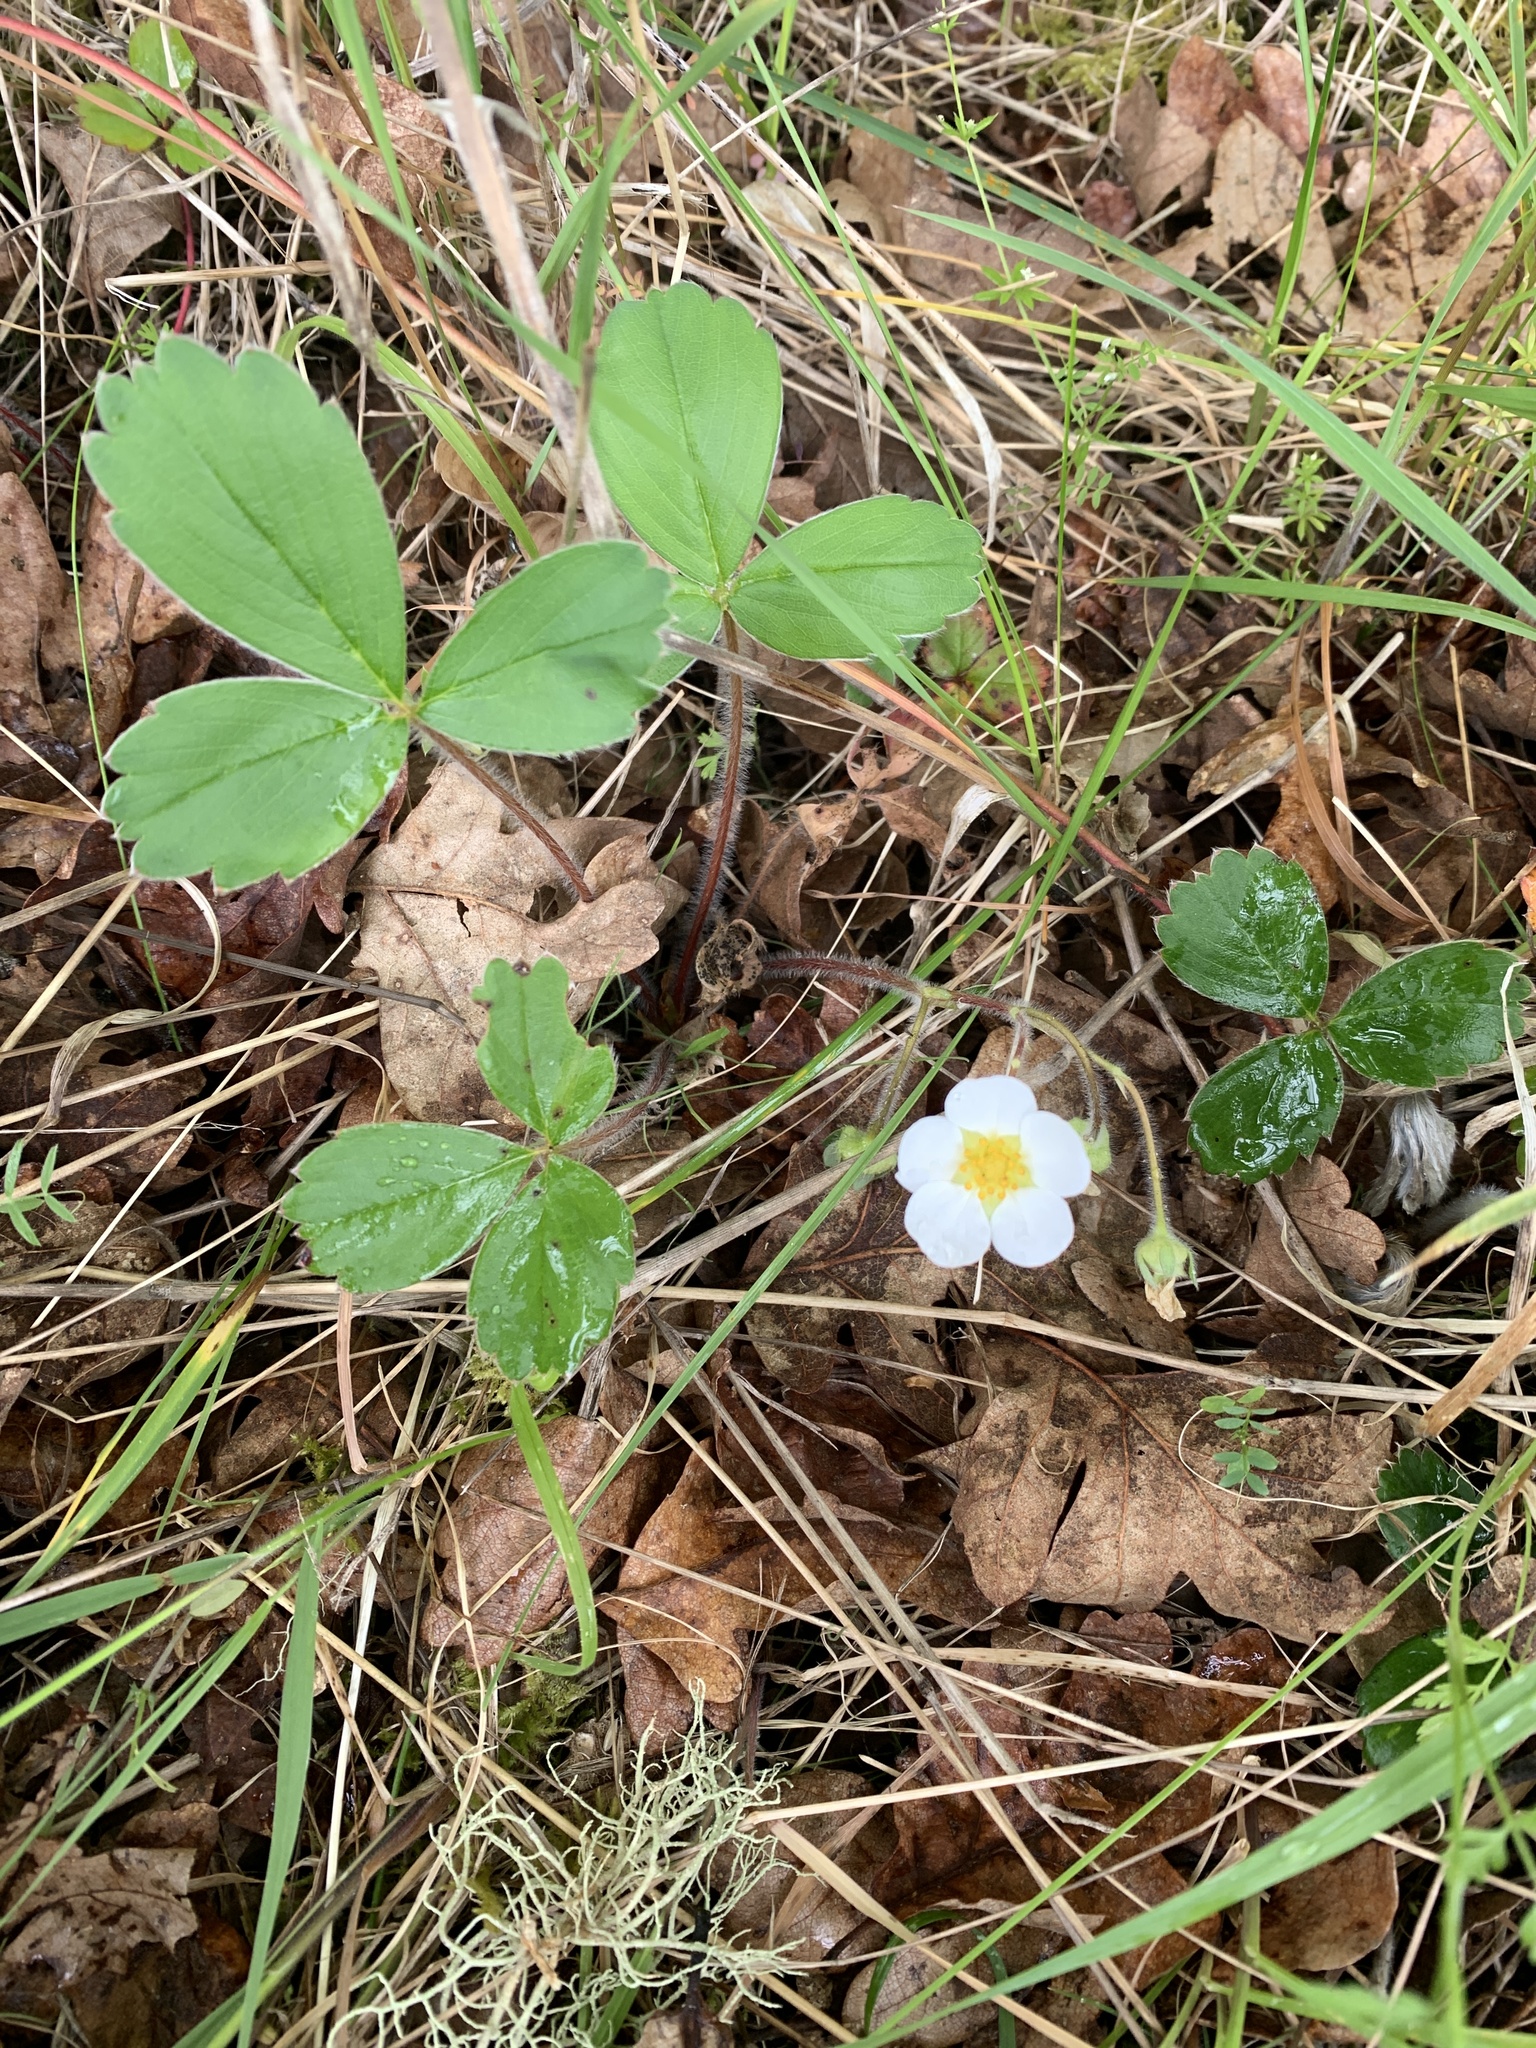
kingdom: Plantae
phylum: Tracheophyta
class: Magnoliopsida
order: Rosales
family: Rosaceae
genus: Fragaria
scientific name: Fragaria virginiana
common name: Thickleaved wild strawberry
